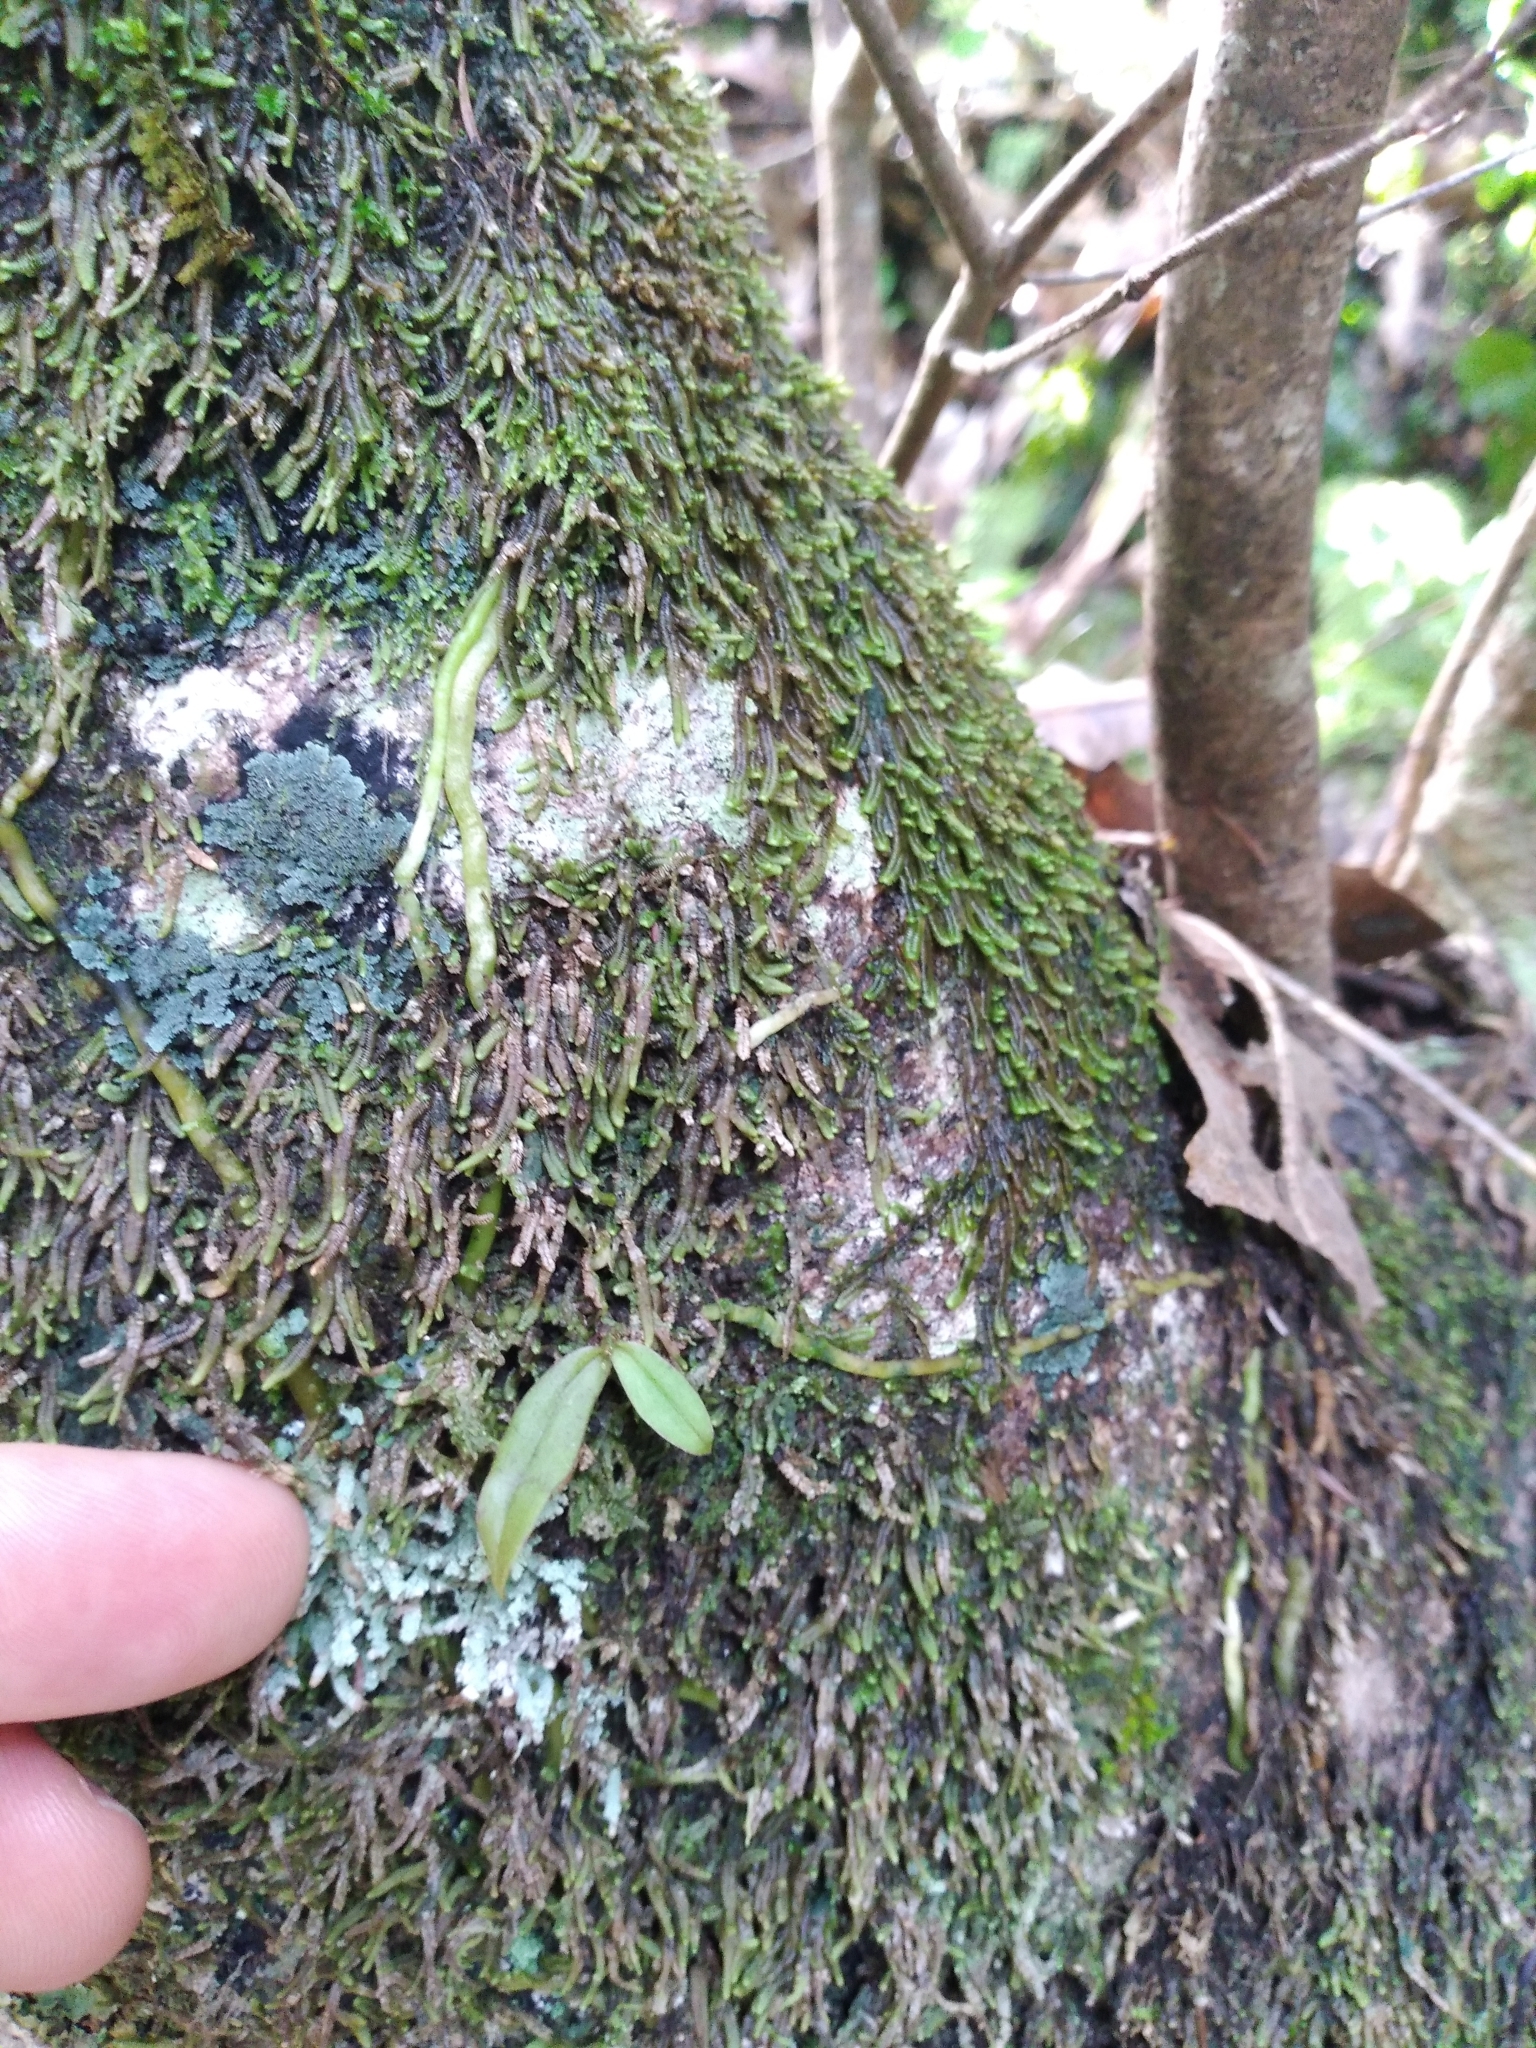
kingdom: Plantae
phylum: Tracheophyta
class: Liliopsida
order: Asparagales
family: Orchidaceae
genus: Drymoanthus
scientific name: Drymoanthus adversus
